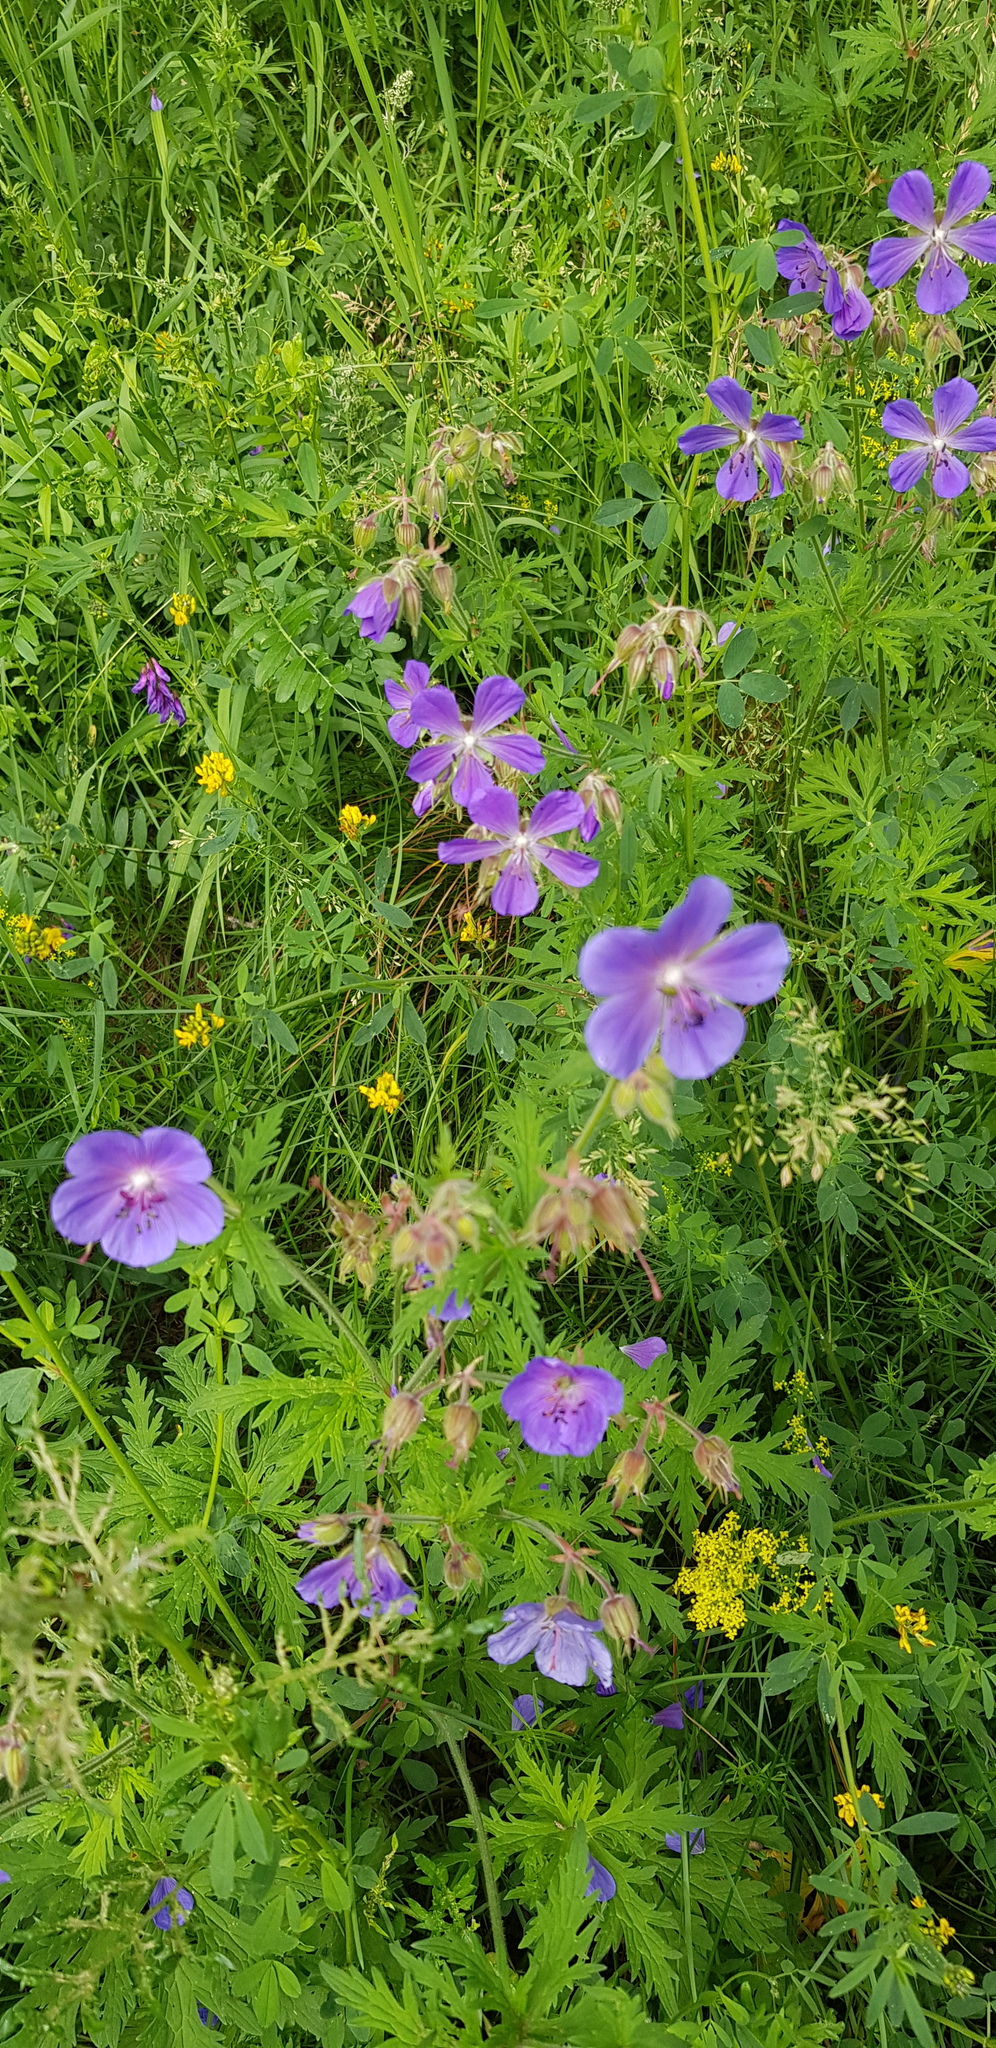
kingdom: Plantae
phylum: Tracheophyta
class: Magnoliopsida
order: Geraniales
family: Geraniaceae
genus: Geranium
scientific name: Geranium pratense
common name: Meadow crane's-bill
